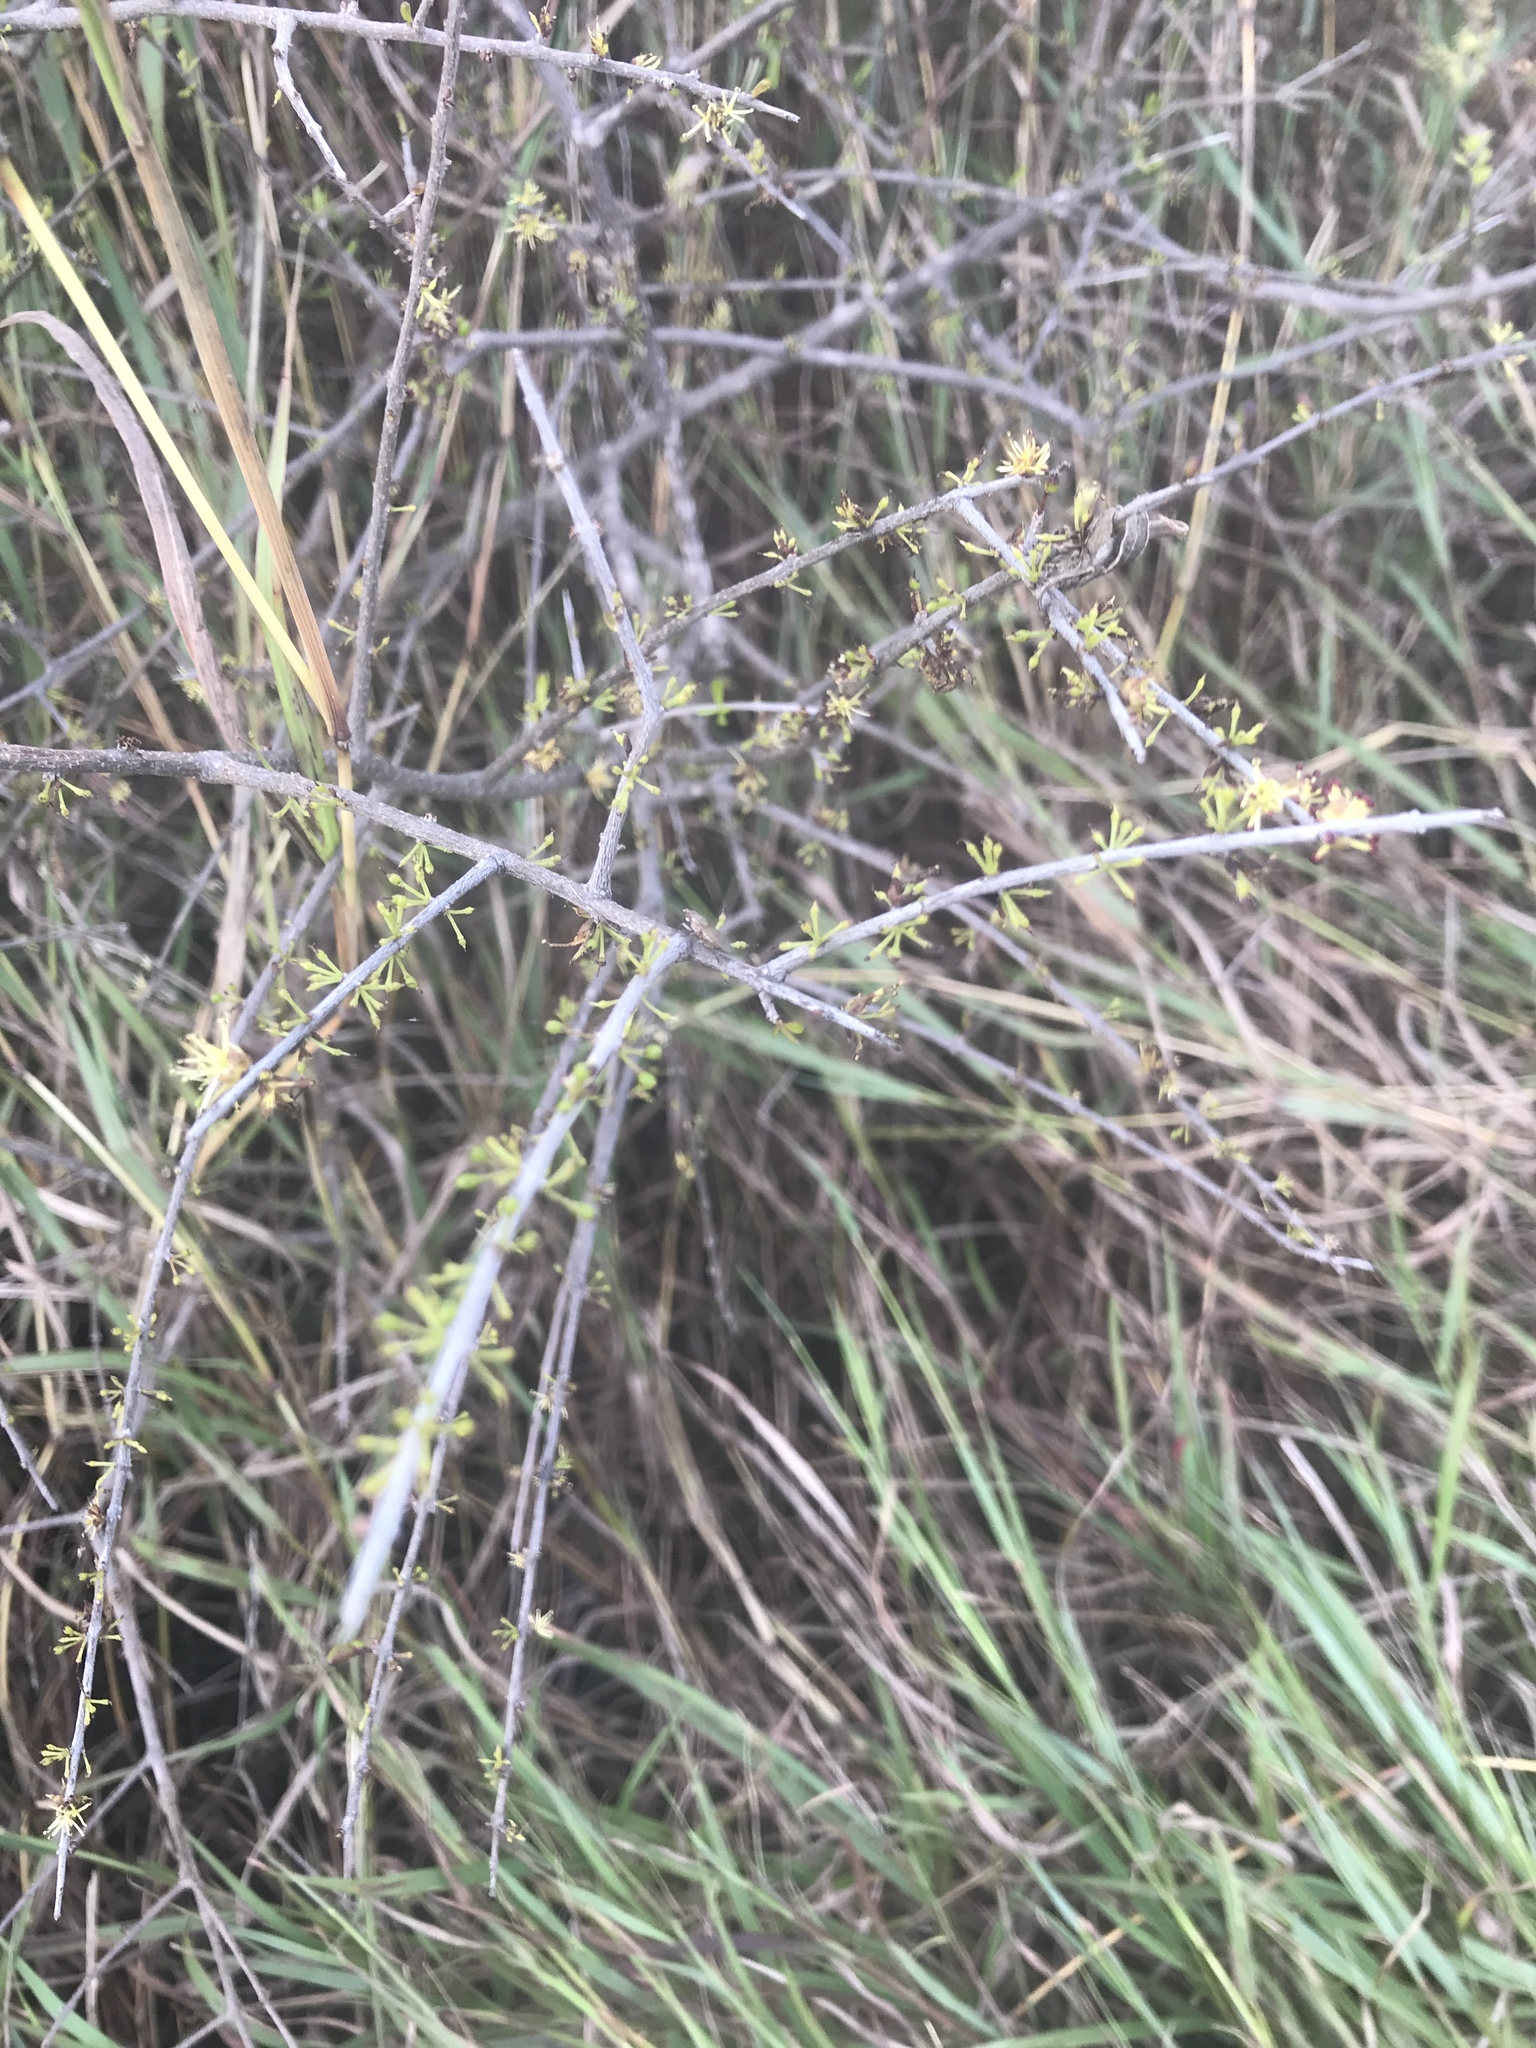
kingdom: Plantae
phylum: Tracheophyta
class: Magnoliopsida
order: Lamiales
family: Oleaceae
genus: Forestiera
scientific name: Forestiera angustifolia
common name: Elbowbush
